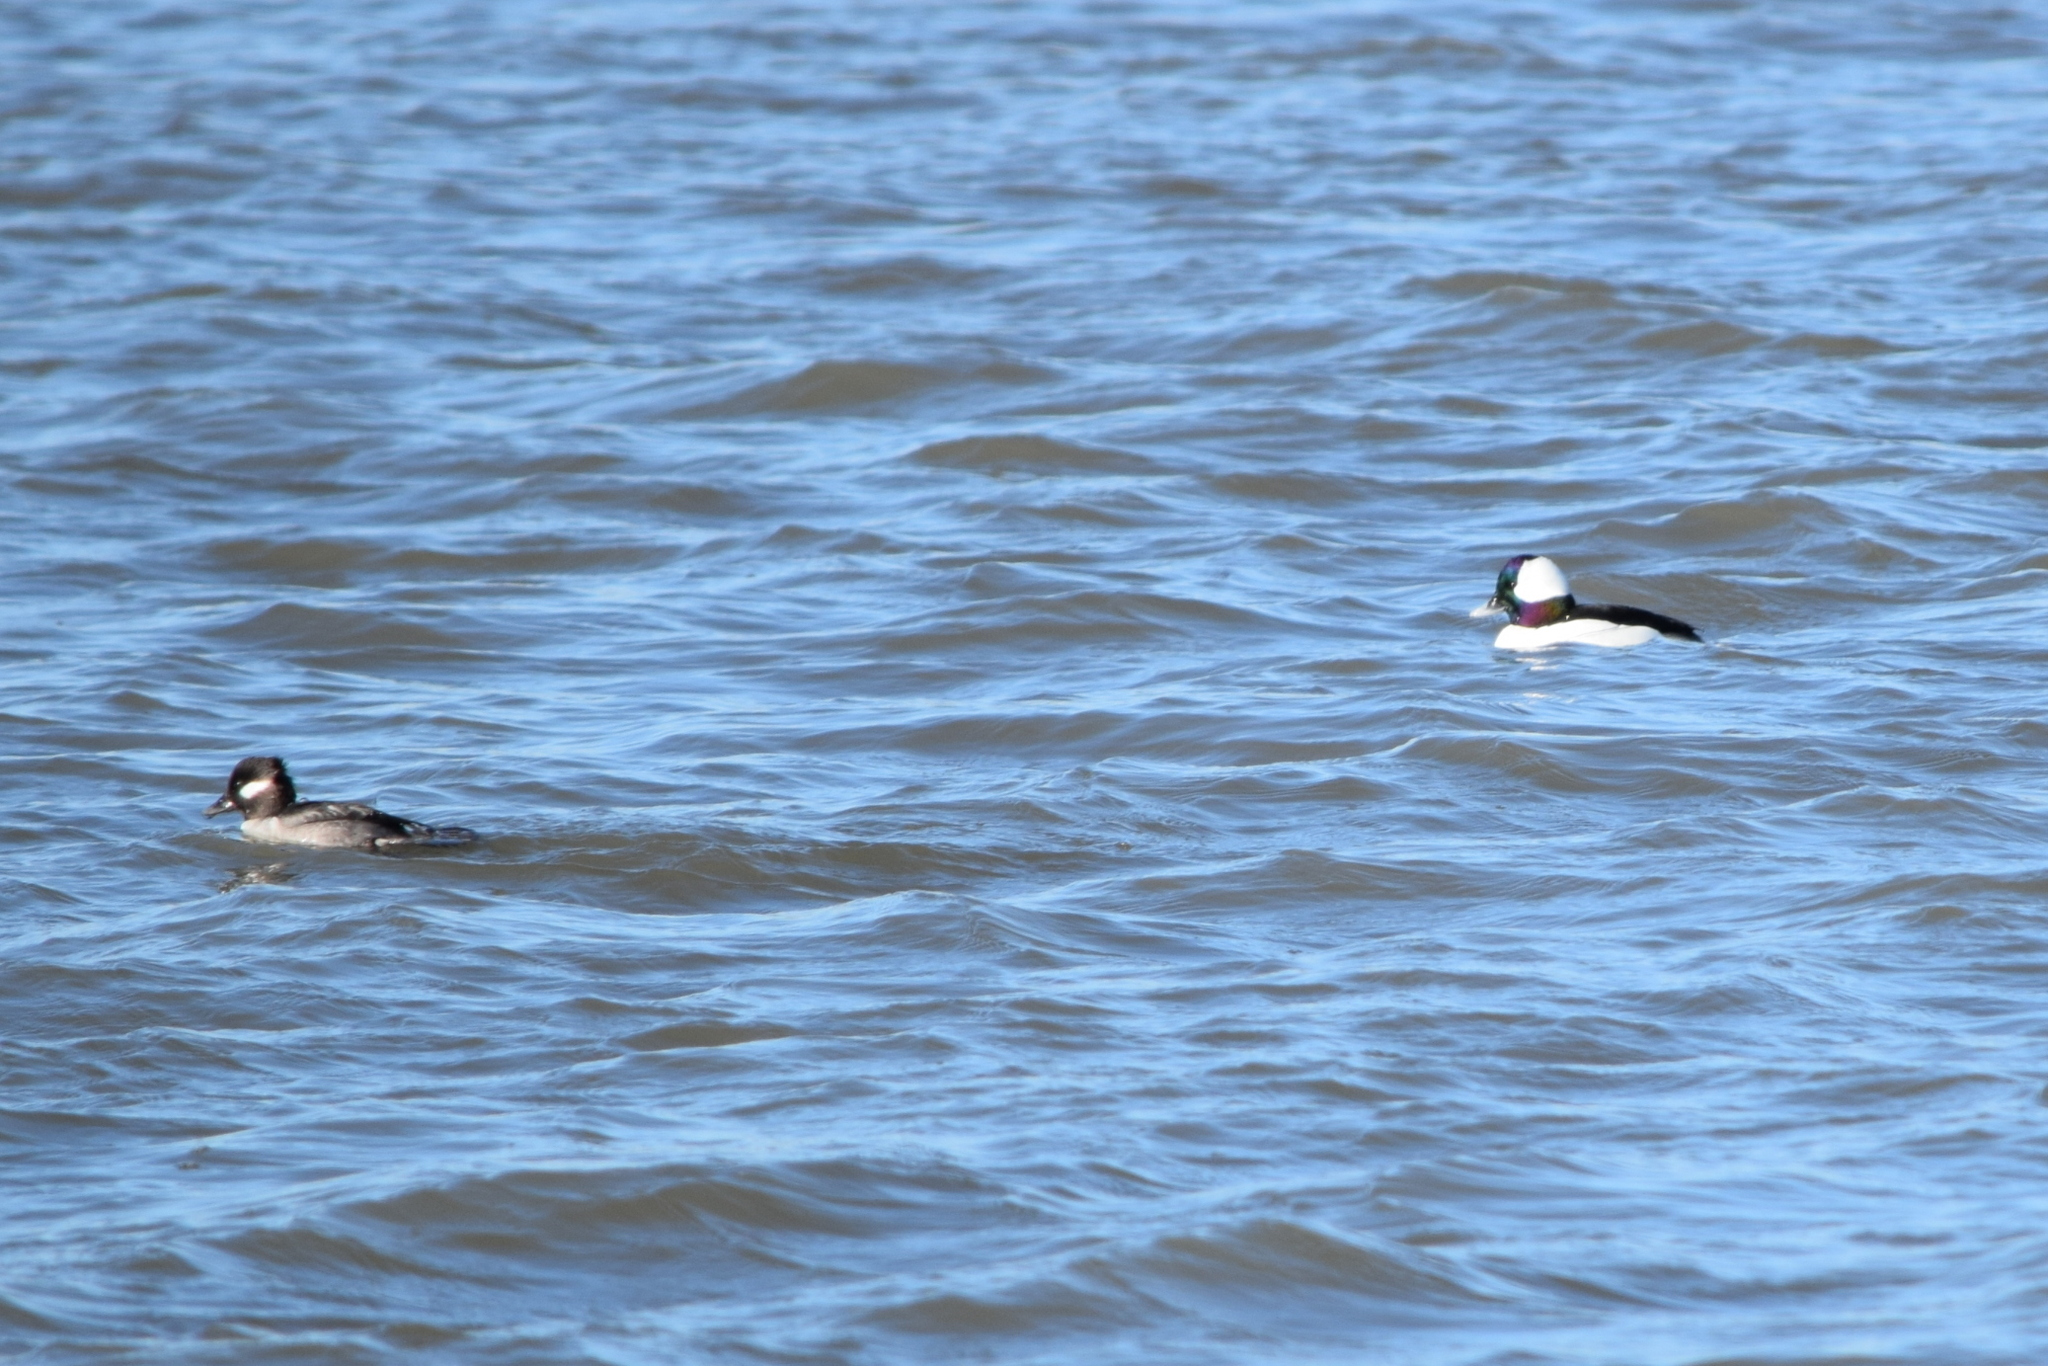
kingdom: Animalia
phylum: Chordata
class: Aves
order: Anseriformes
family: Anatidae
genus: Bucephala
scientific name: Bucephala albeola
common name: Bufflehead
